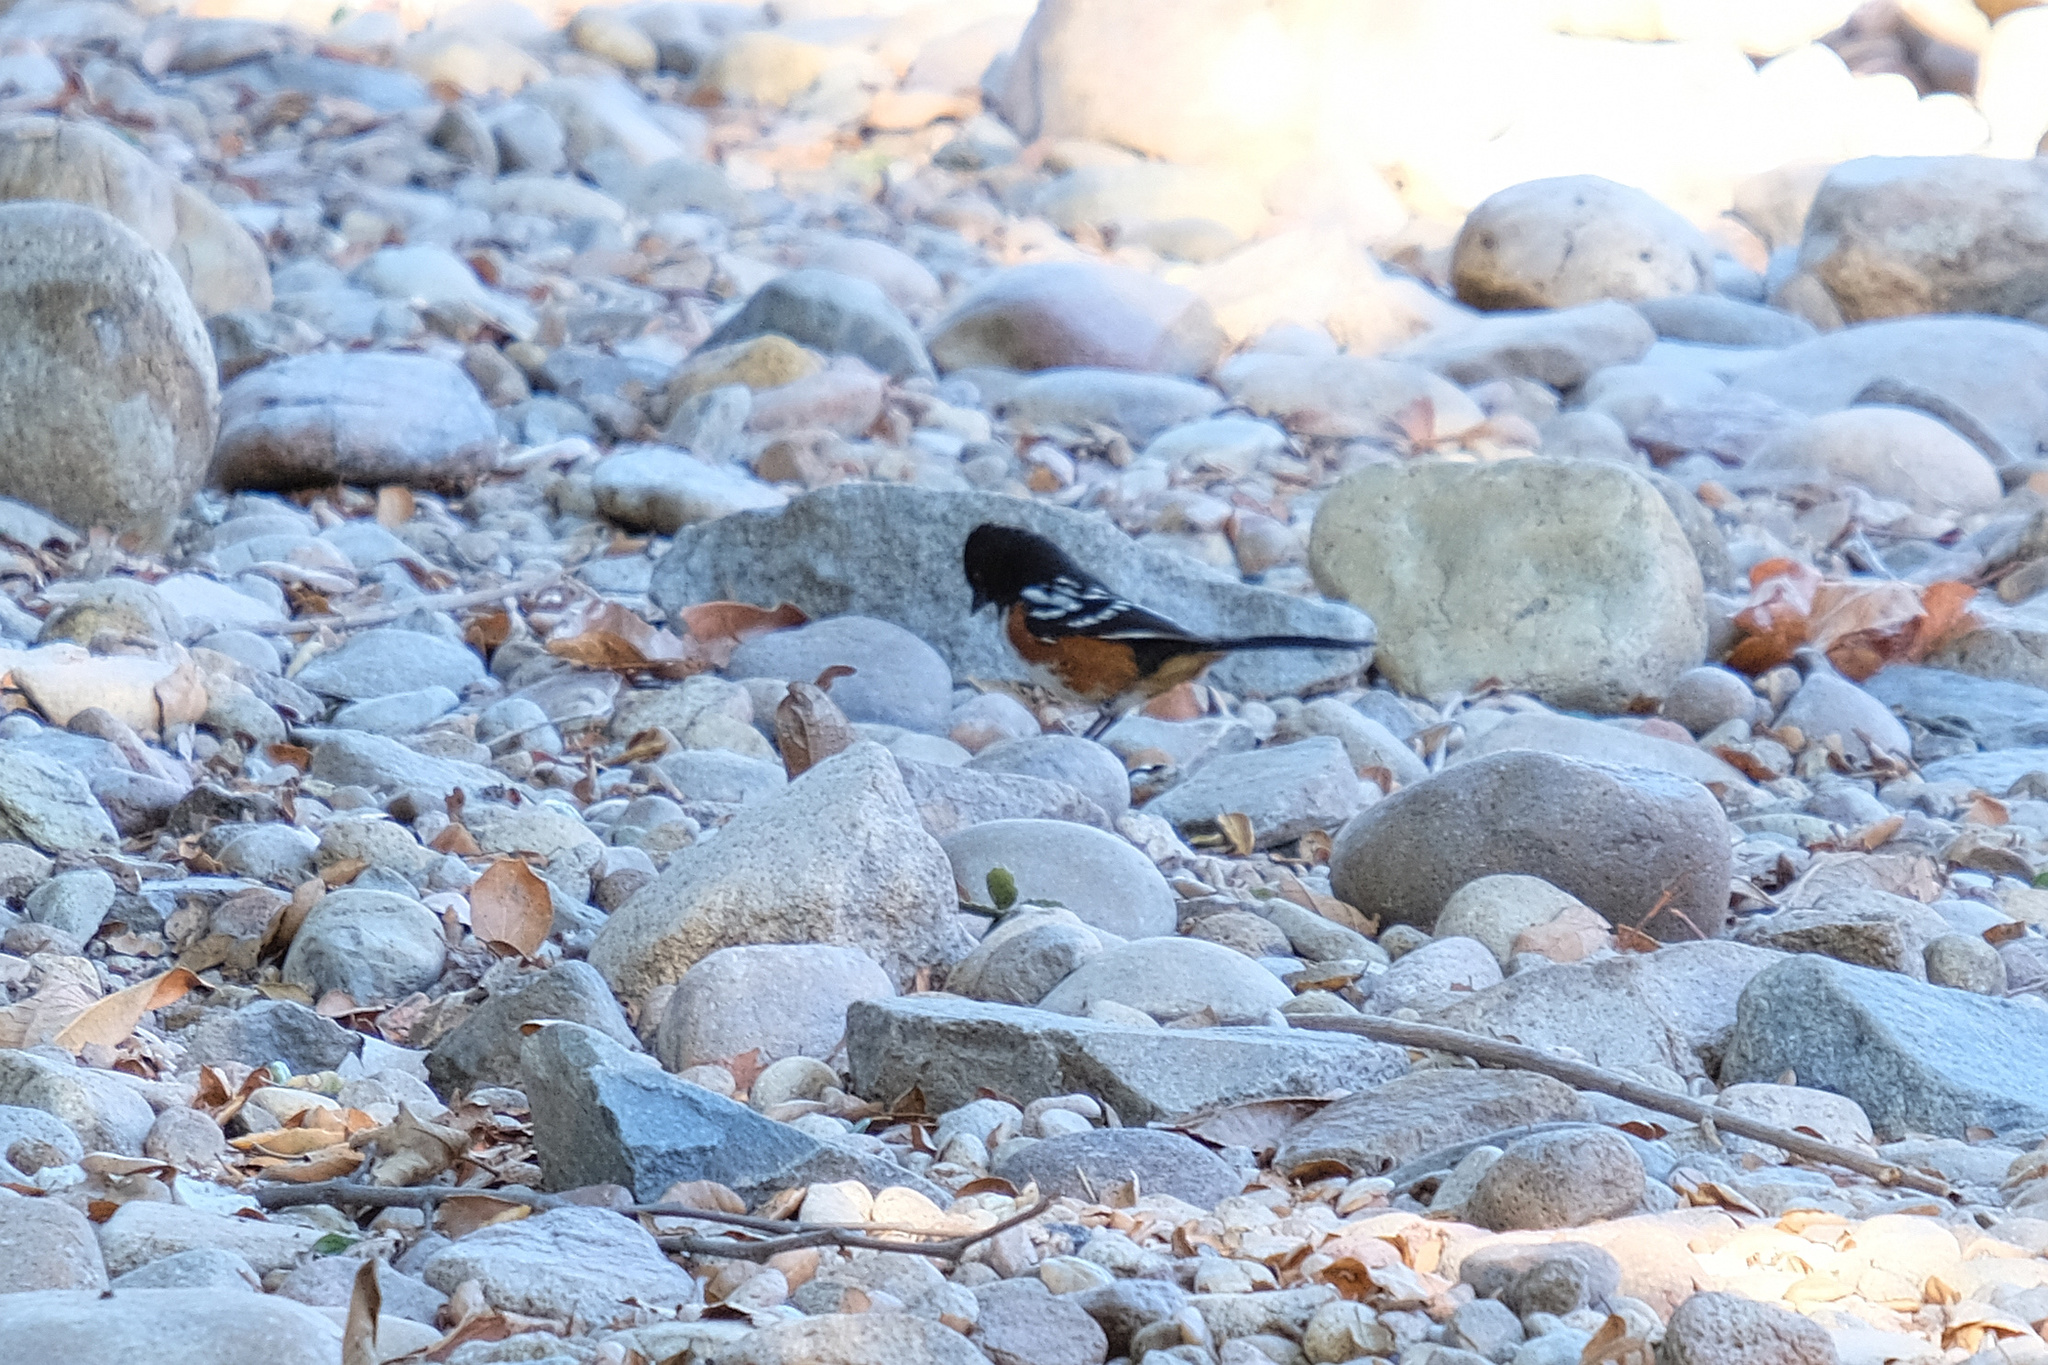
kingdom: Animalia
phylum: Chordata
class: Aves
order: Passeriformes
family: Passerellidae
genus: Pipilo
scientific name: Pipilo maculatus
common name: Spotted towhee
